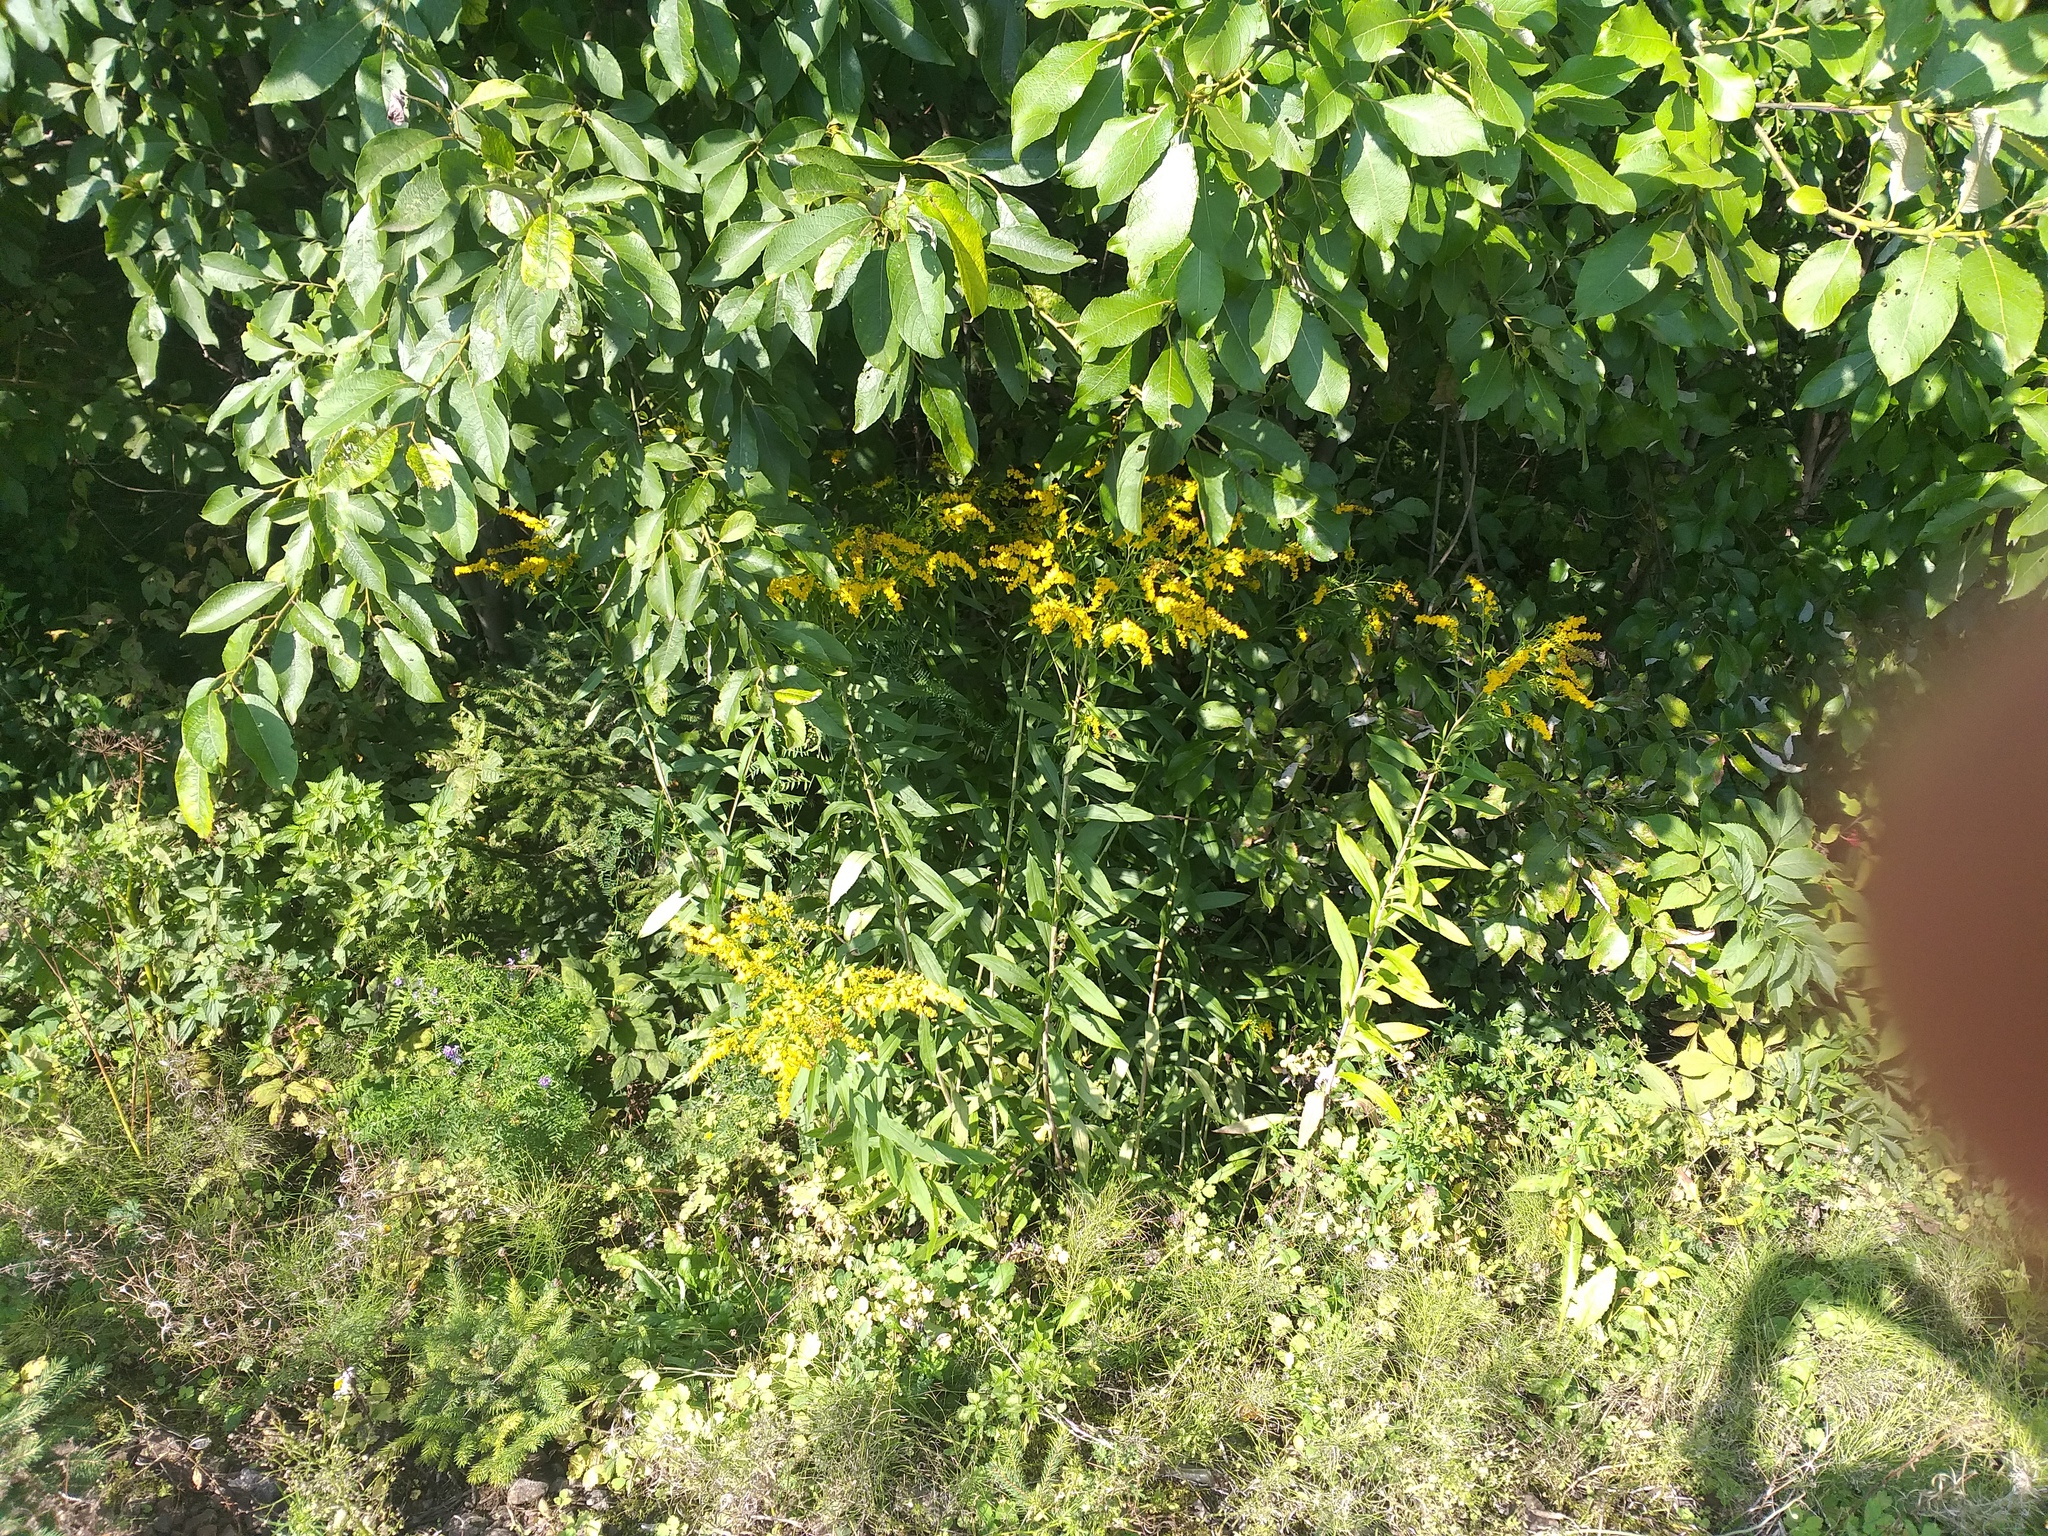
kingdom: Plantae
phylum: Tracheophyta
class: Magnoliopsida
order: Asterales
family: Asteraceae
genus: Solidago
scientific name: Solidago gigantea
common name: Giant goldenrod
